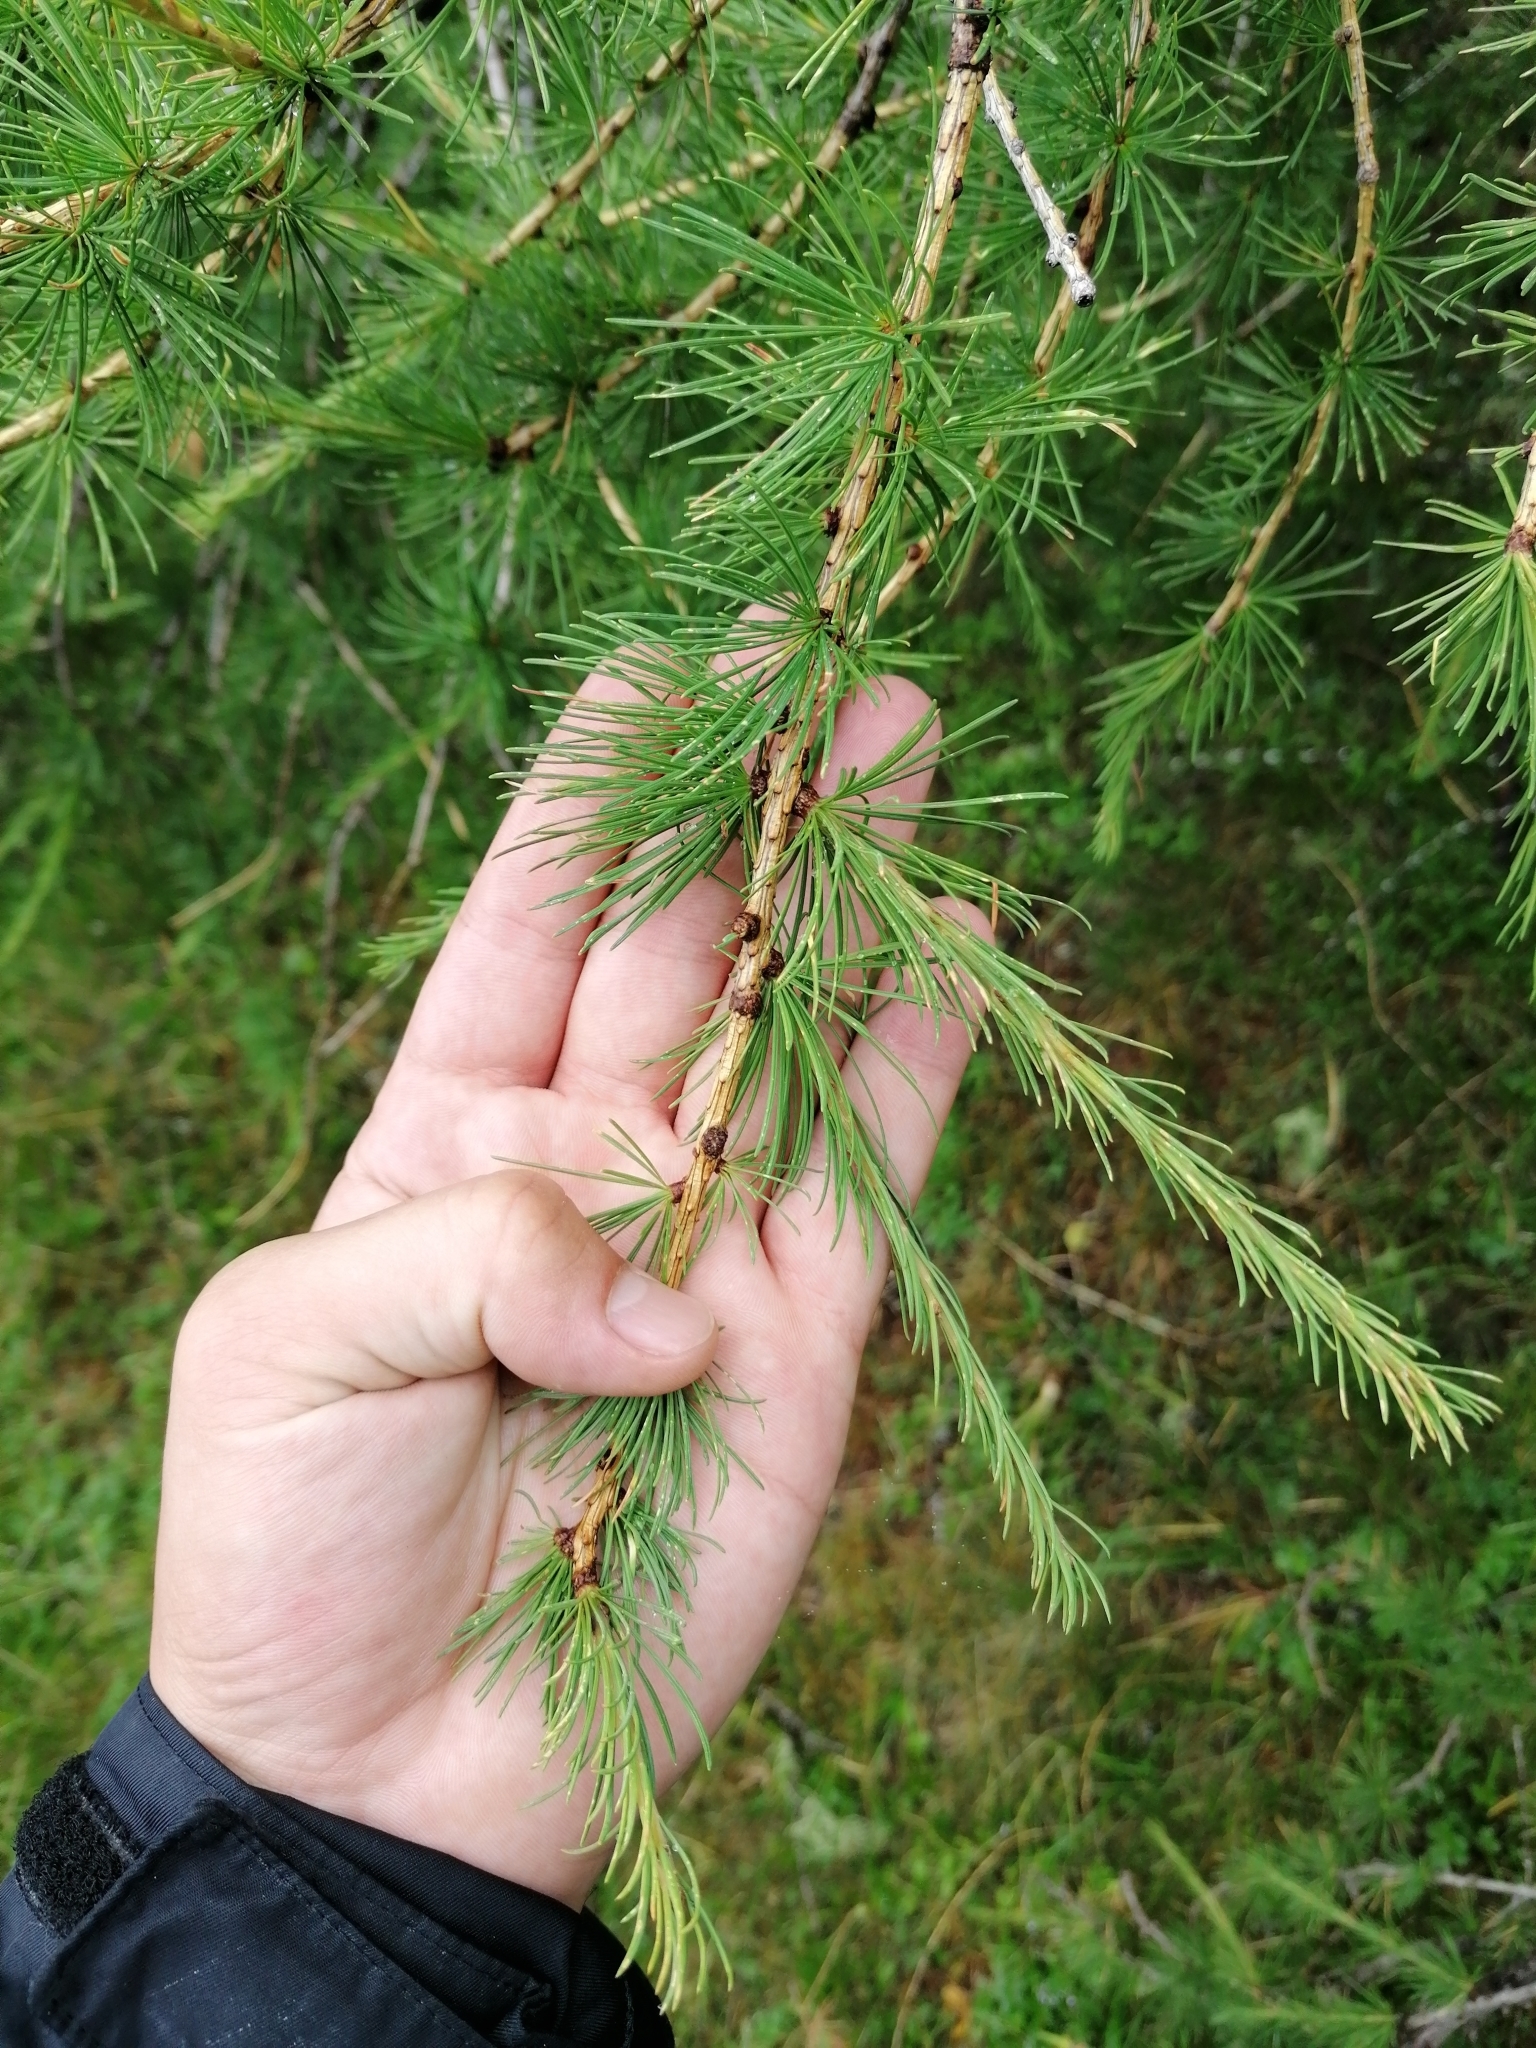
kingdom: Plantae
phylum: Tracheophyta
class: Pinopsida
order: Pinales
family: Pinaceae
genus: Larix
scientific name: Larix decidua
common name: European larch
